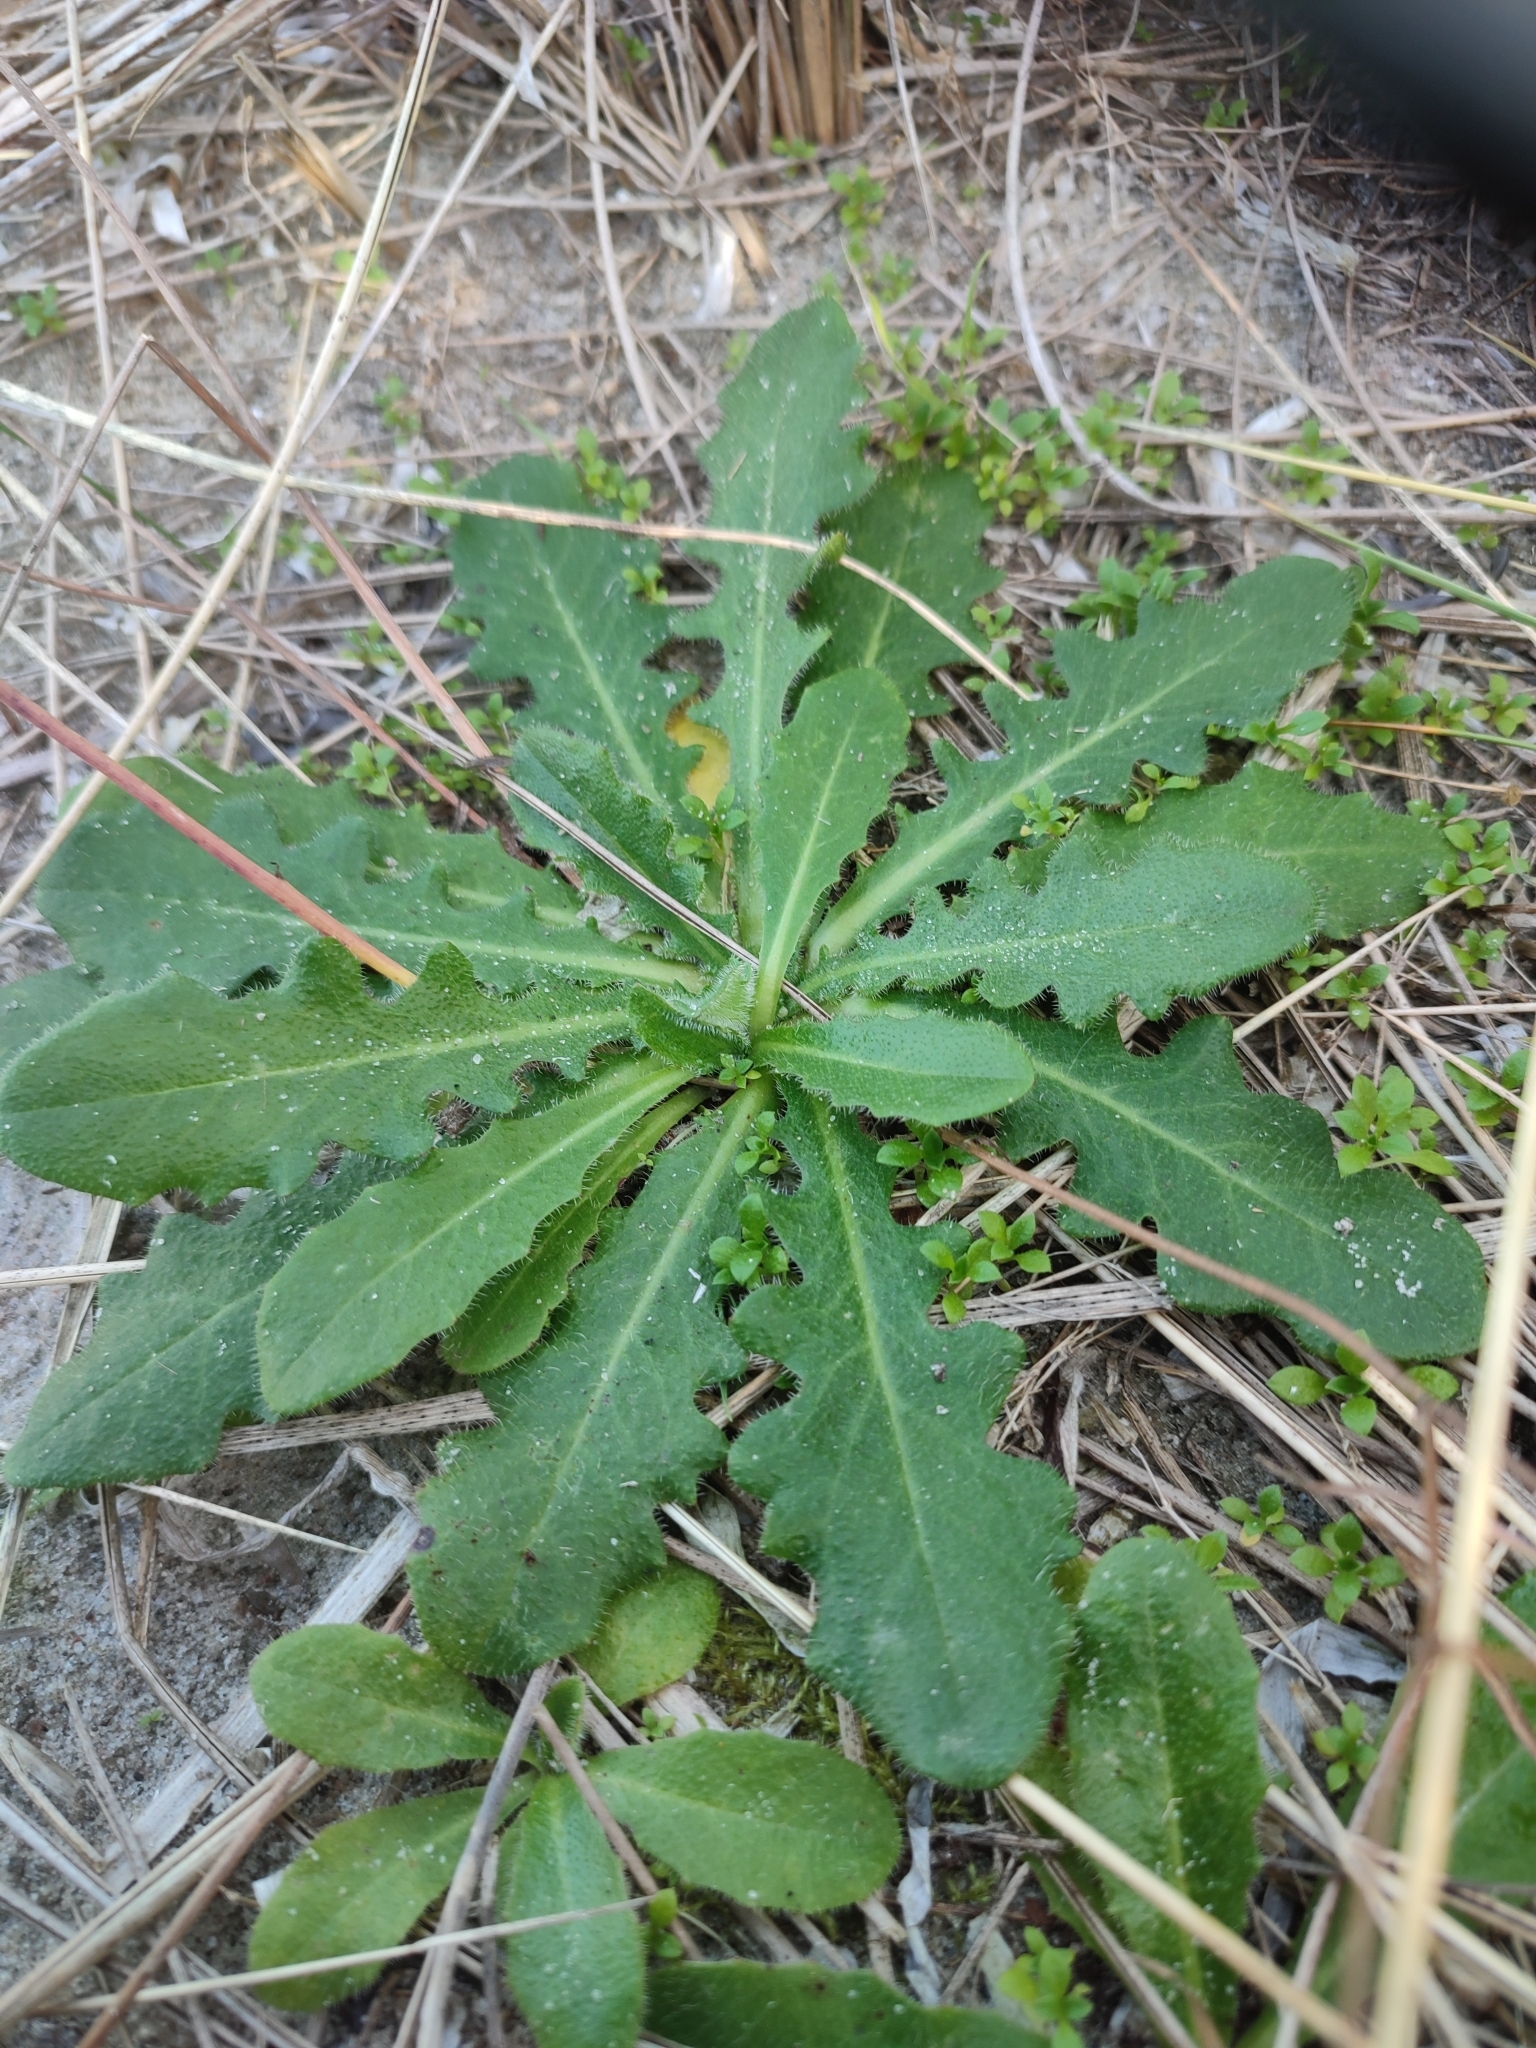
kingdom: Plantae
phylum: Tracheophyta
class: Magnoliopsida
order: Asterales
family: Asteraceae
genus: Hypochaeris
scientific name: Hypochaeris radicata
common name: Flatweed
